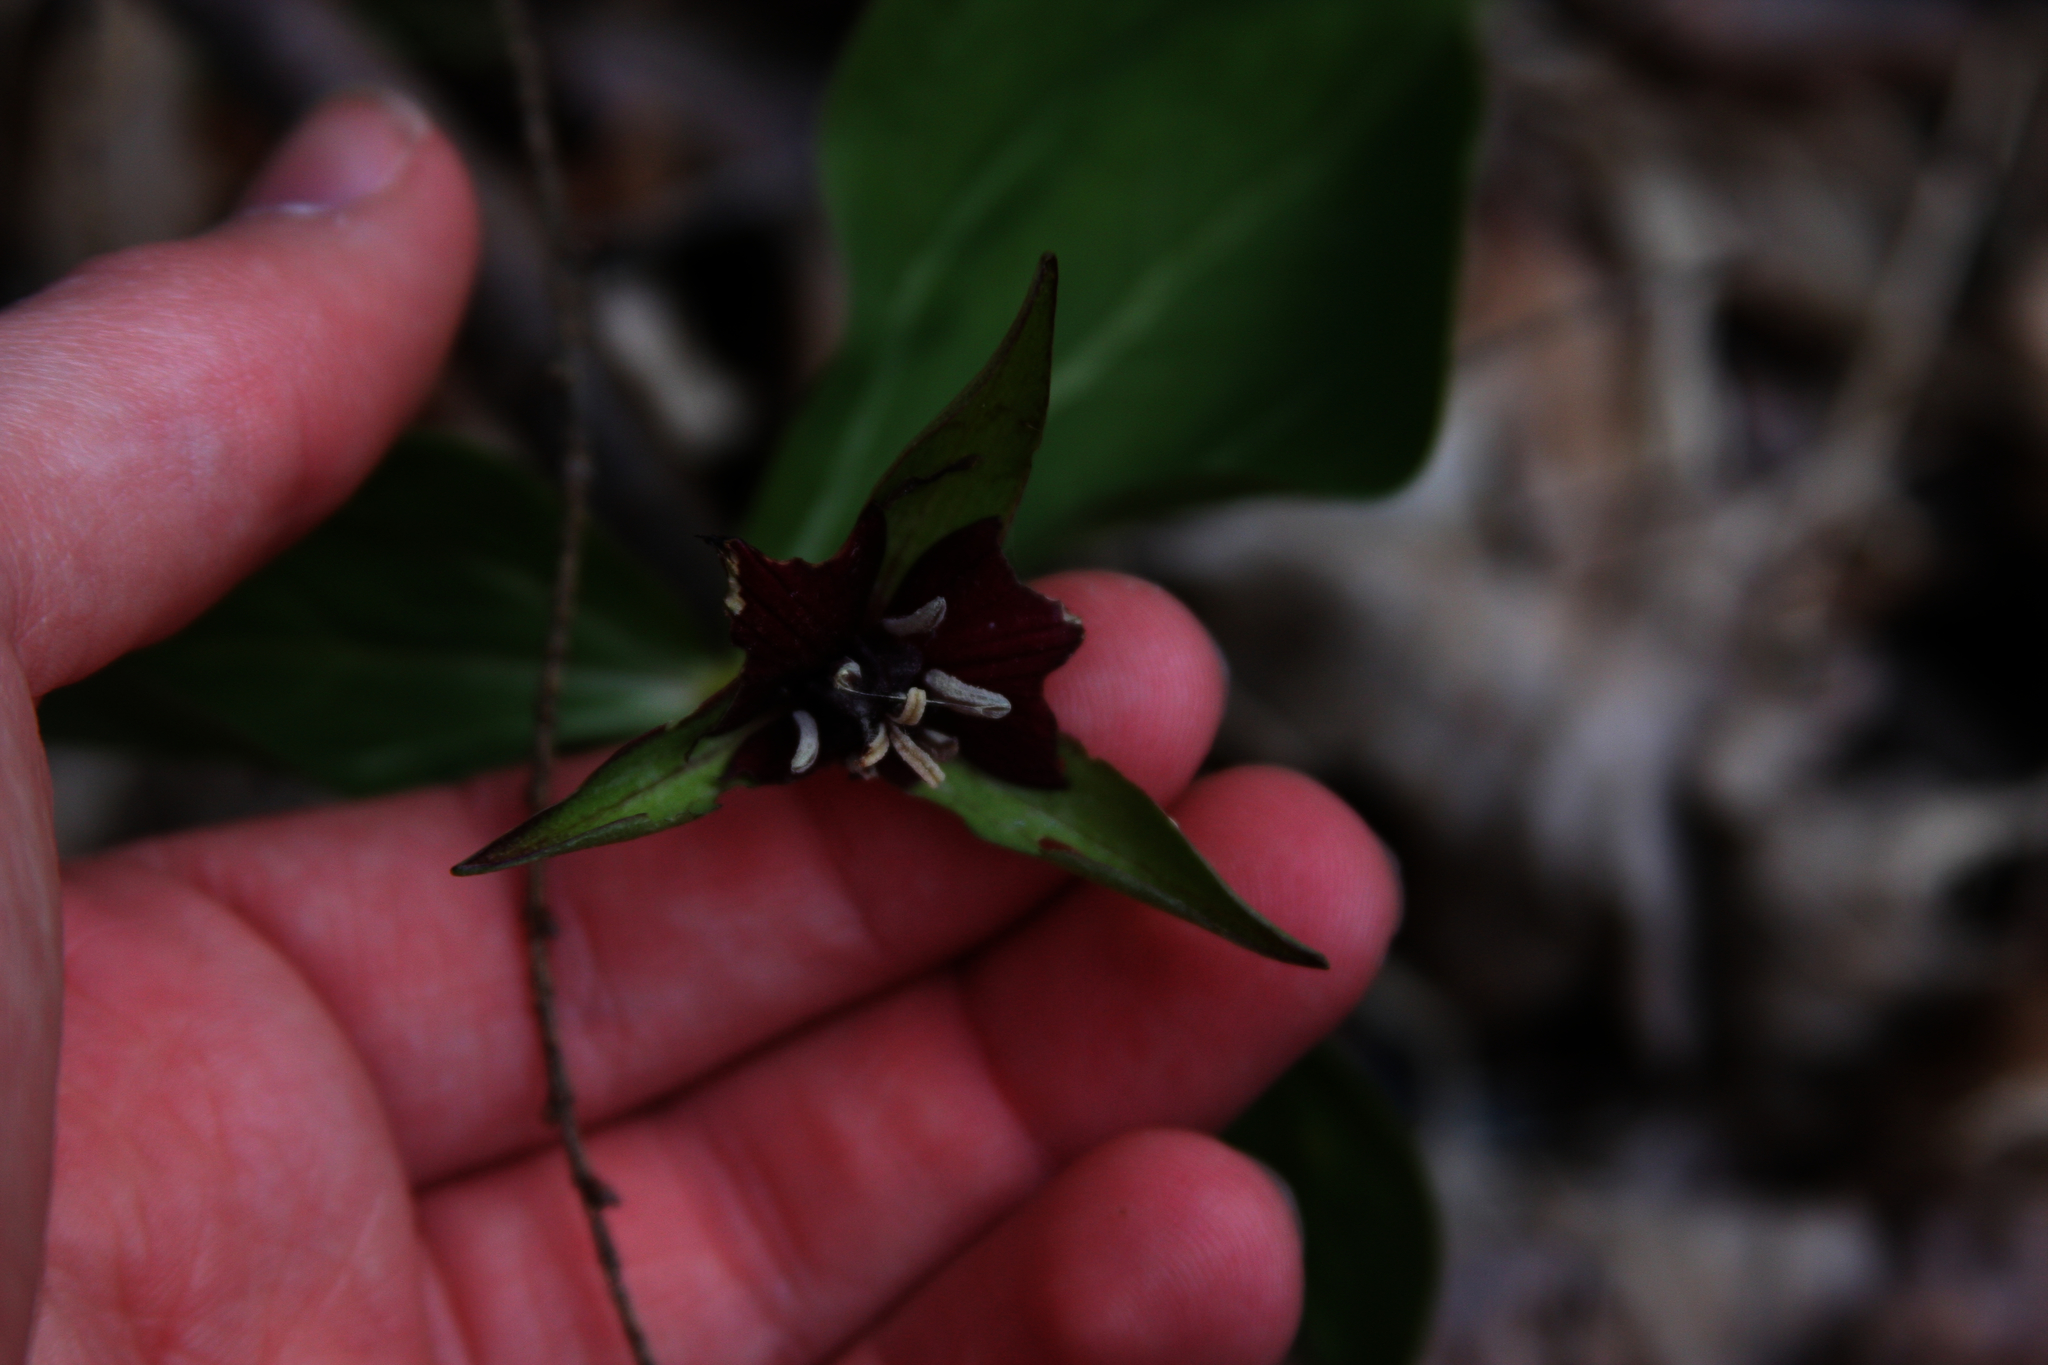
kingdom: Plantae
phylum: Tracheophyta
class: Liliopsida
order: Liliales
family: Melanthiaceae
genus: Trillium
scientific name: Trillium erectum
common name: Purple trillium
